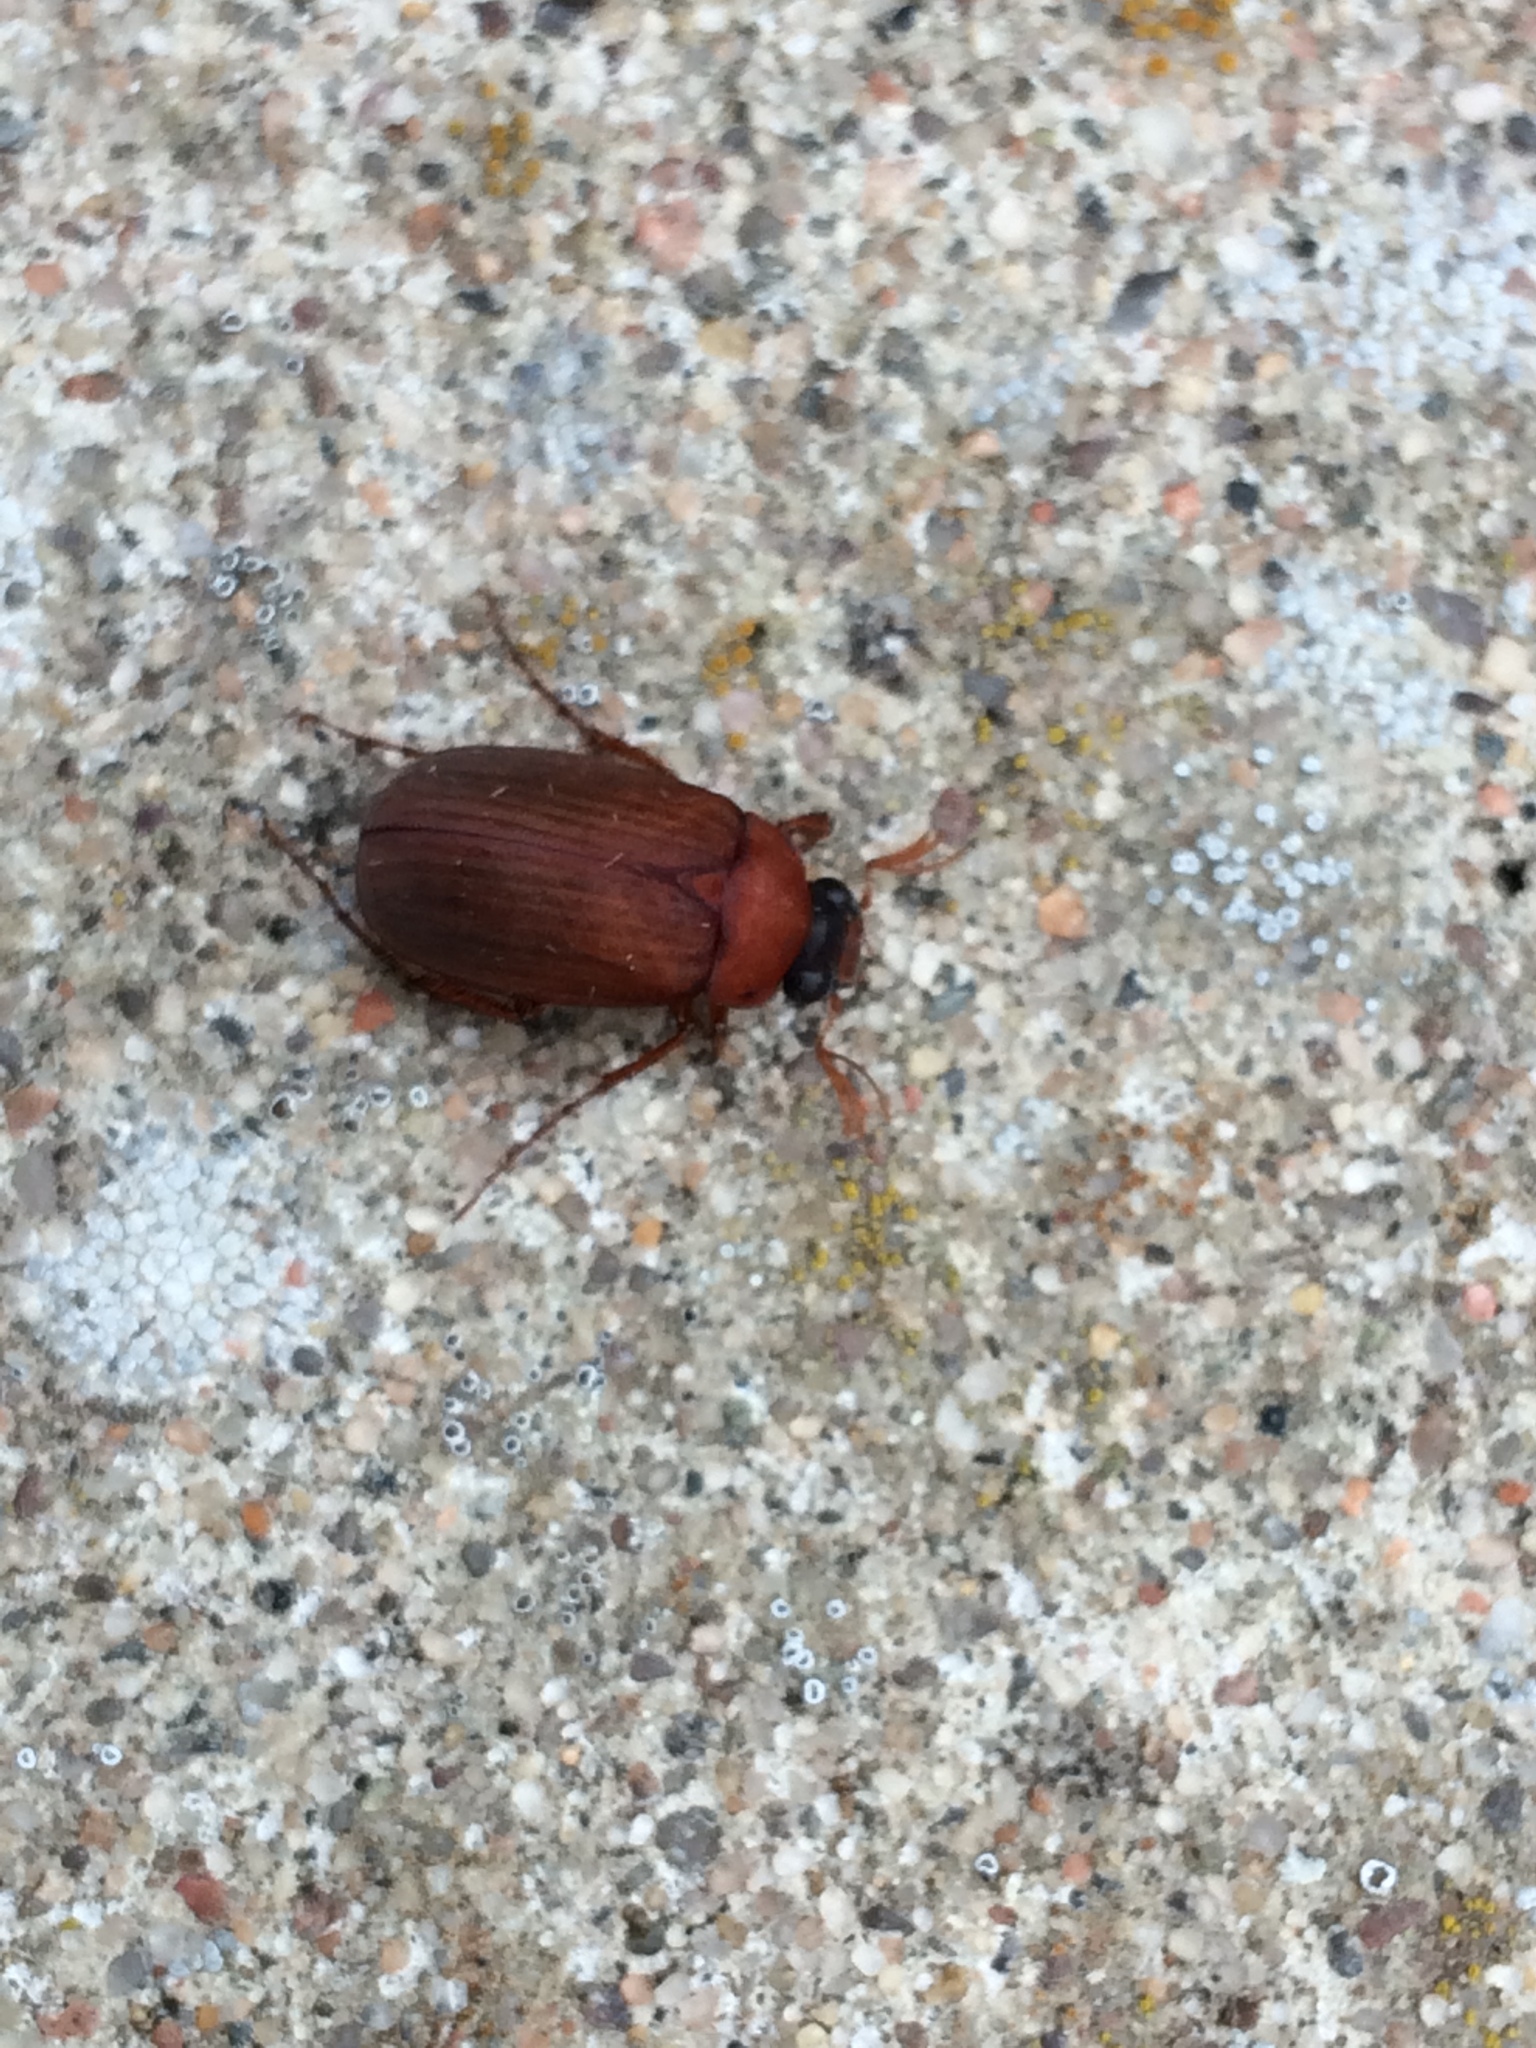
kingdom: Animalia
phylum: Arthropoda
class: Insecta
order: Coleoptera
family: Scarabaeidae
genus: Serica
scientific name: Serica brunnea
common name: Brown chafer
